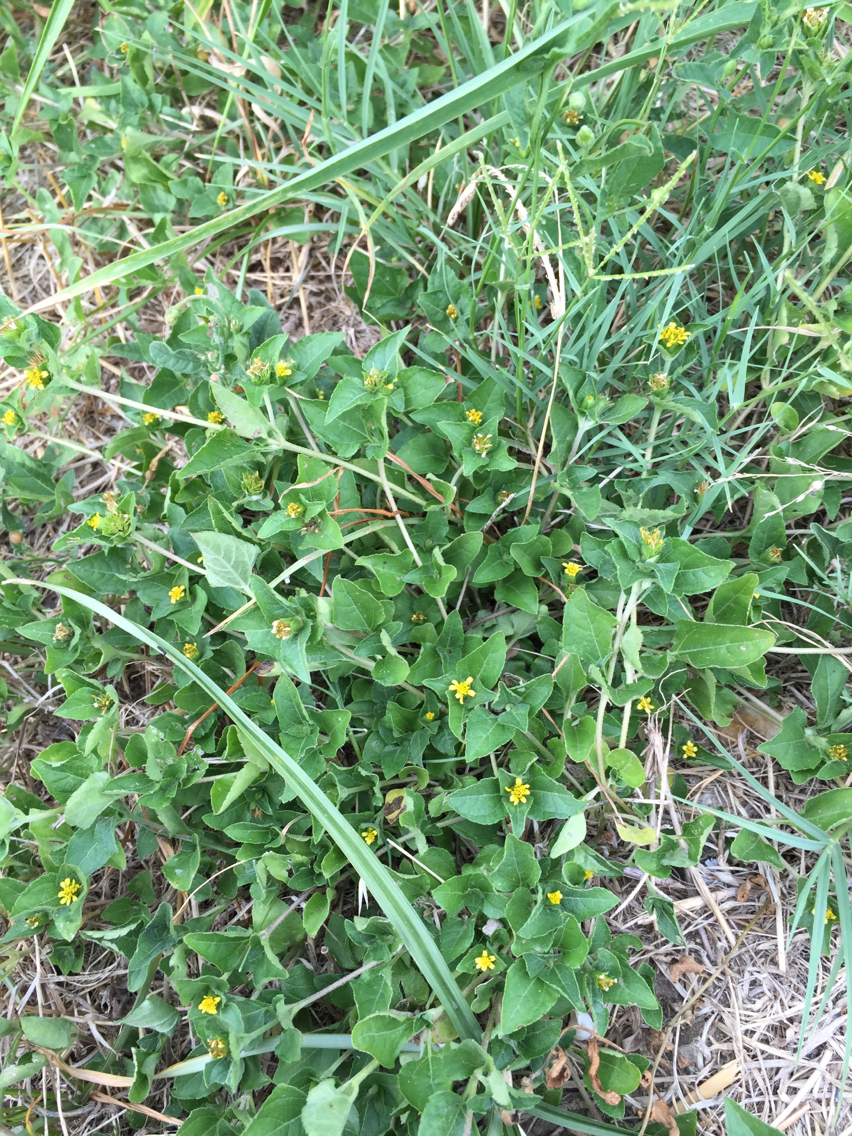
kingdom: Plantae
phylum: Tracheophyta
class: Magnoliopsida
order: Asterales
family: Asteraceae
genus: Calyptocarpus
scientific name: Calyptocarpus vialis
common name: Straggler daisy
